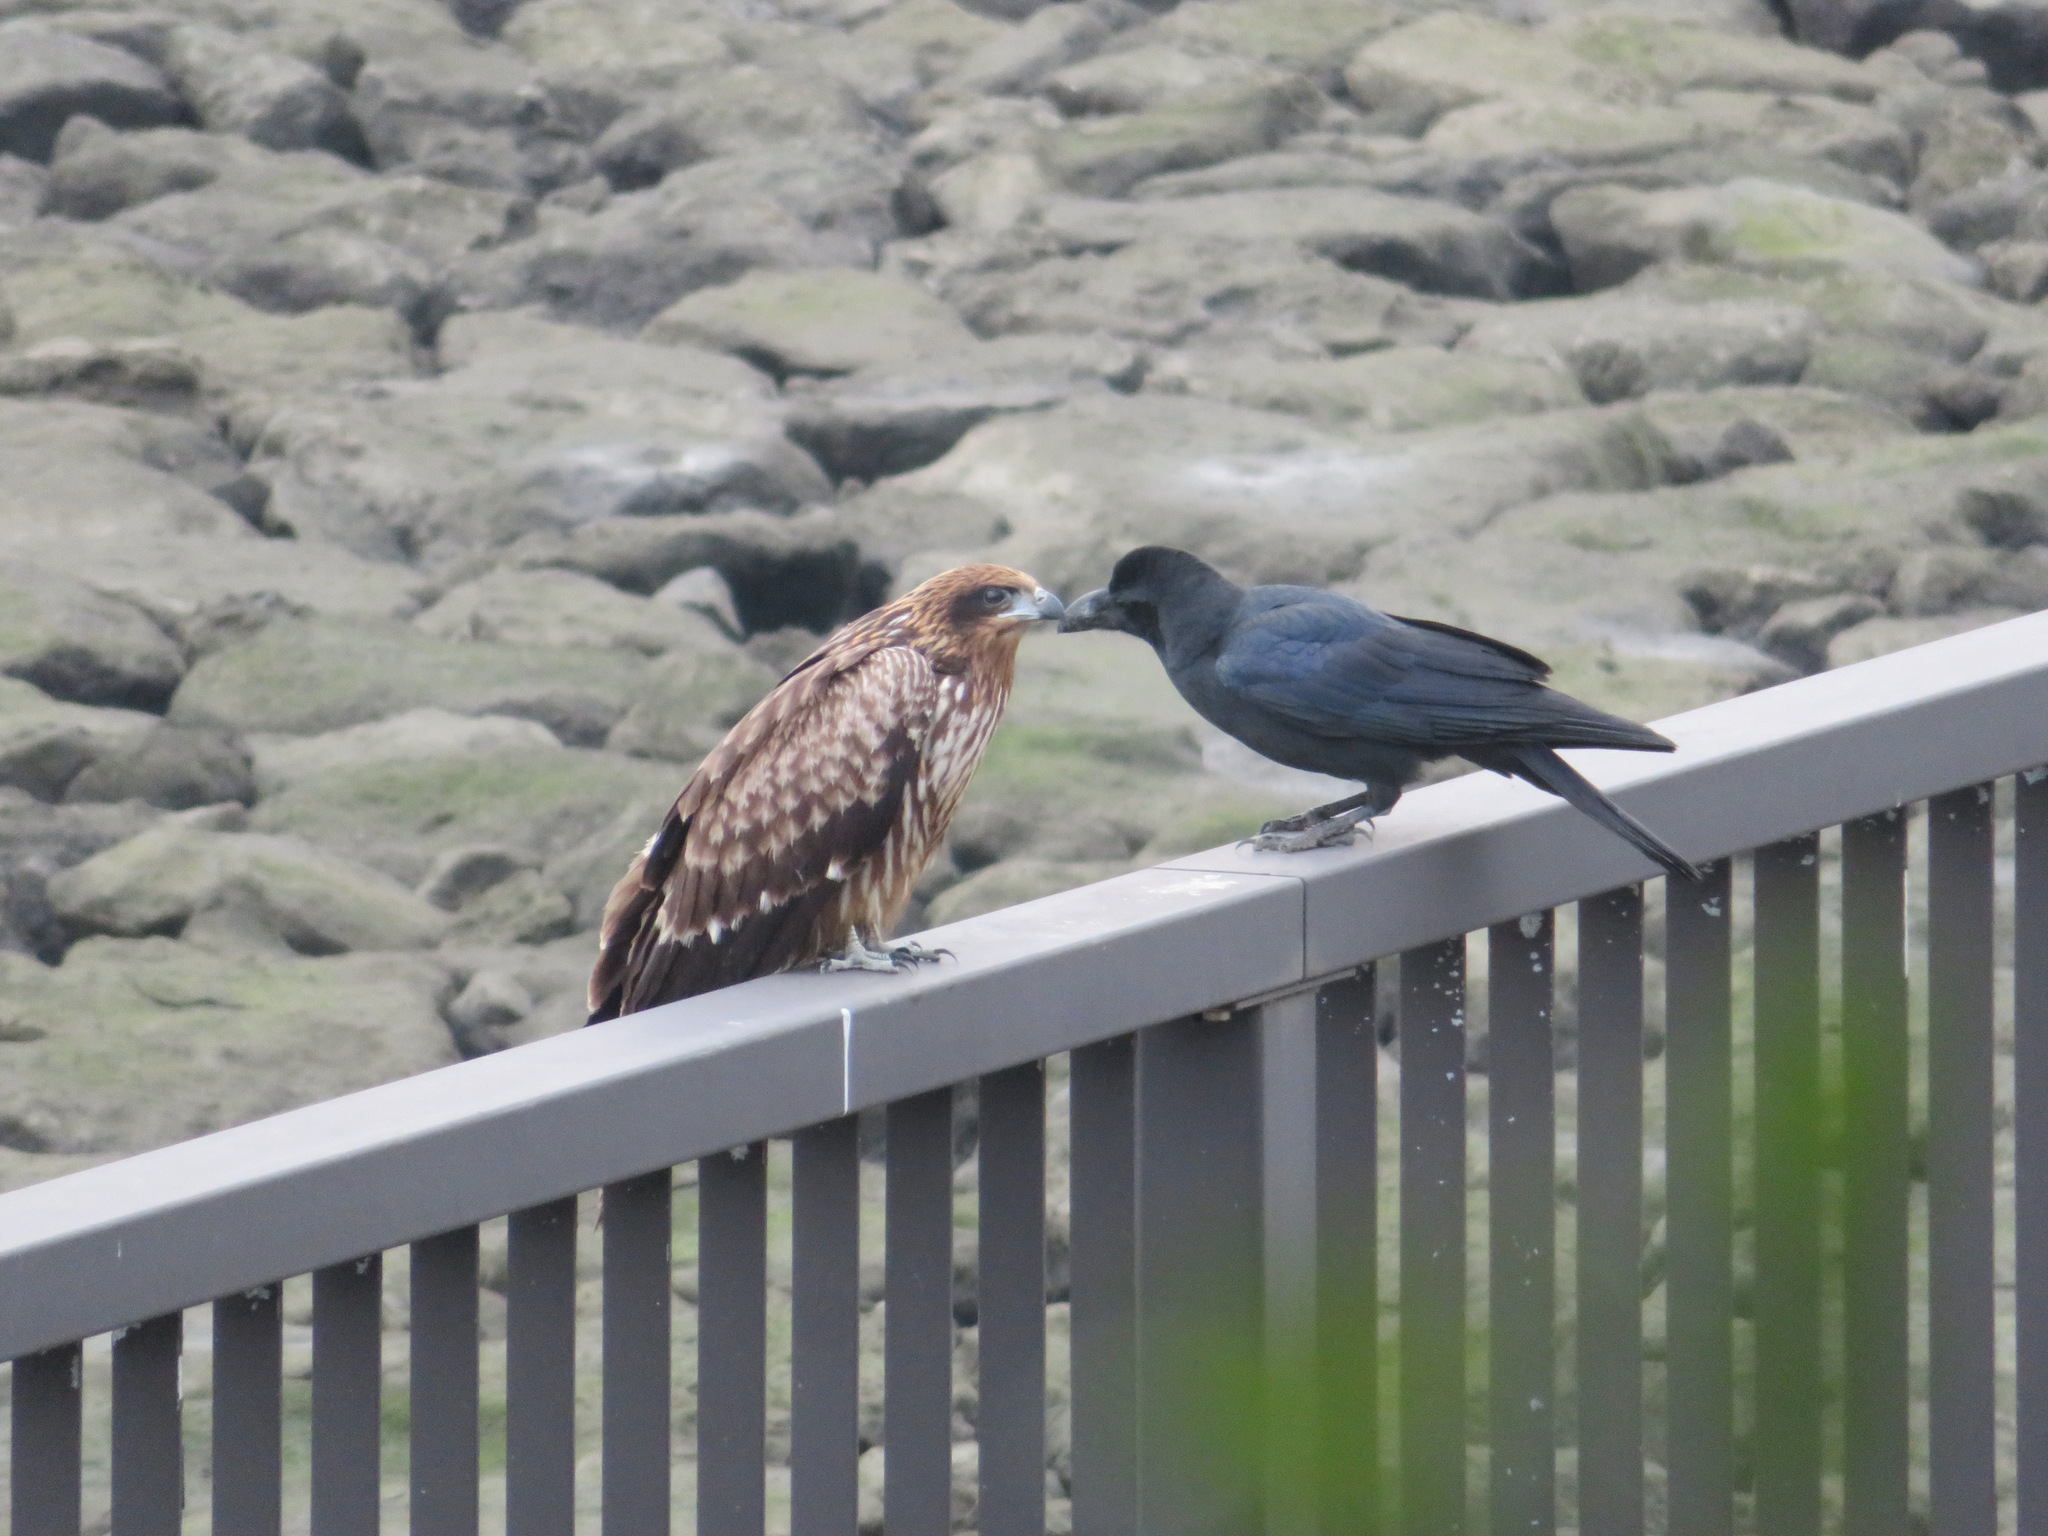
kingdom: Animalia
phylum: Chordata
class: Aves
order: Accipitriformes
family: Accipitridae
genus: Milvus
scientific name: Milvus migrans
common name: Black kite
